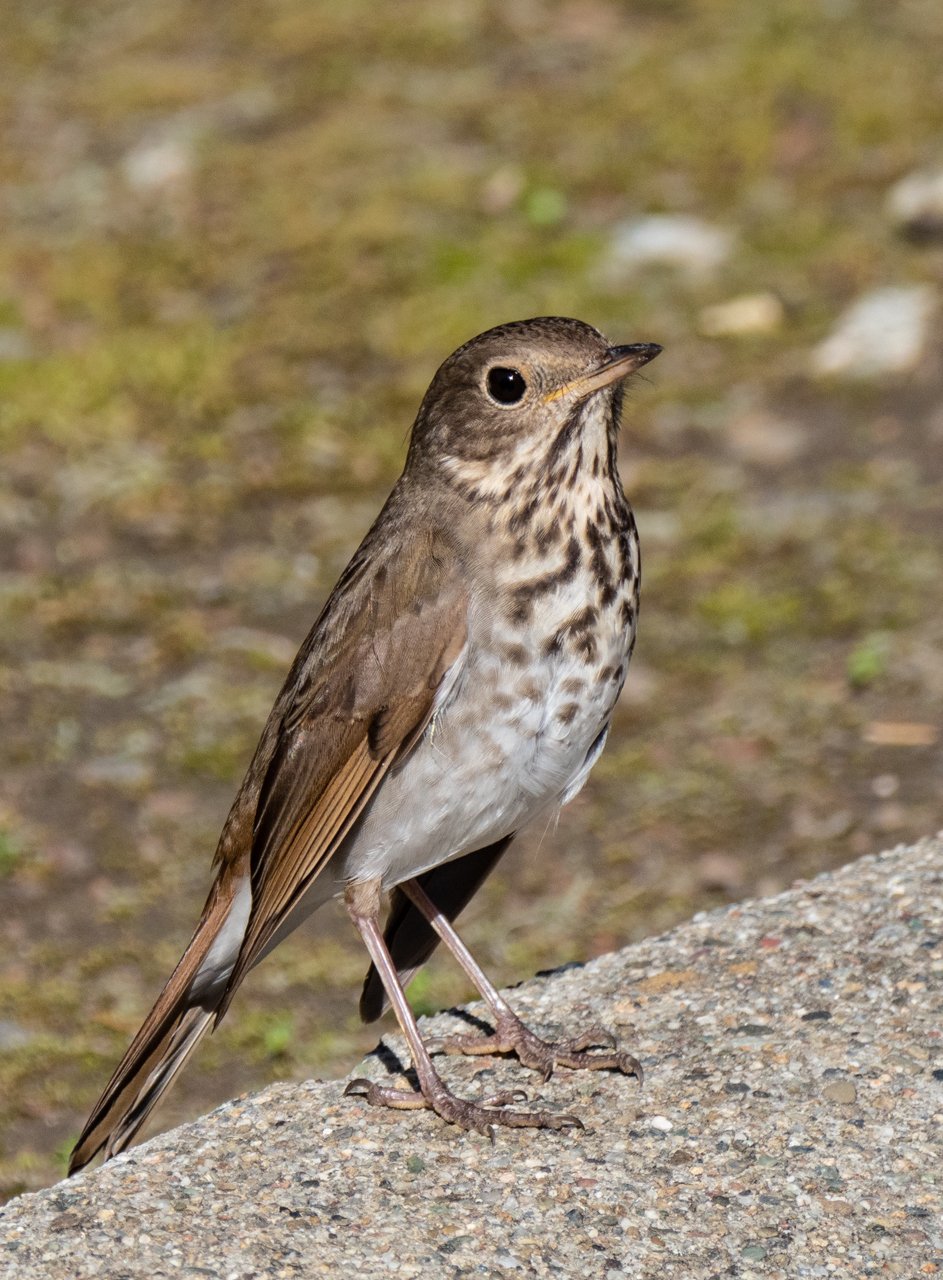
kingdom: Animalia
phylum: Chordata
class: Aves
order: Passeriformes
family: Turdidae
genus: Catharus
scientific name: Catharus guttatus
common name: Hermit thrush
